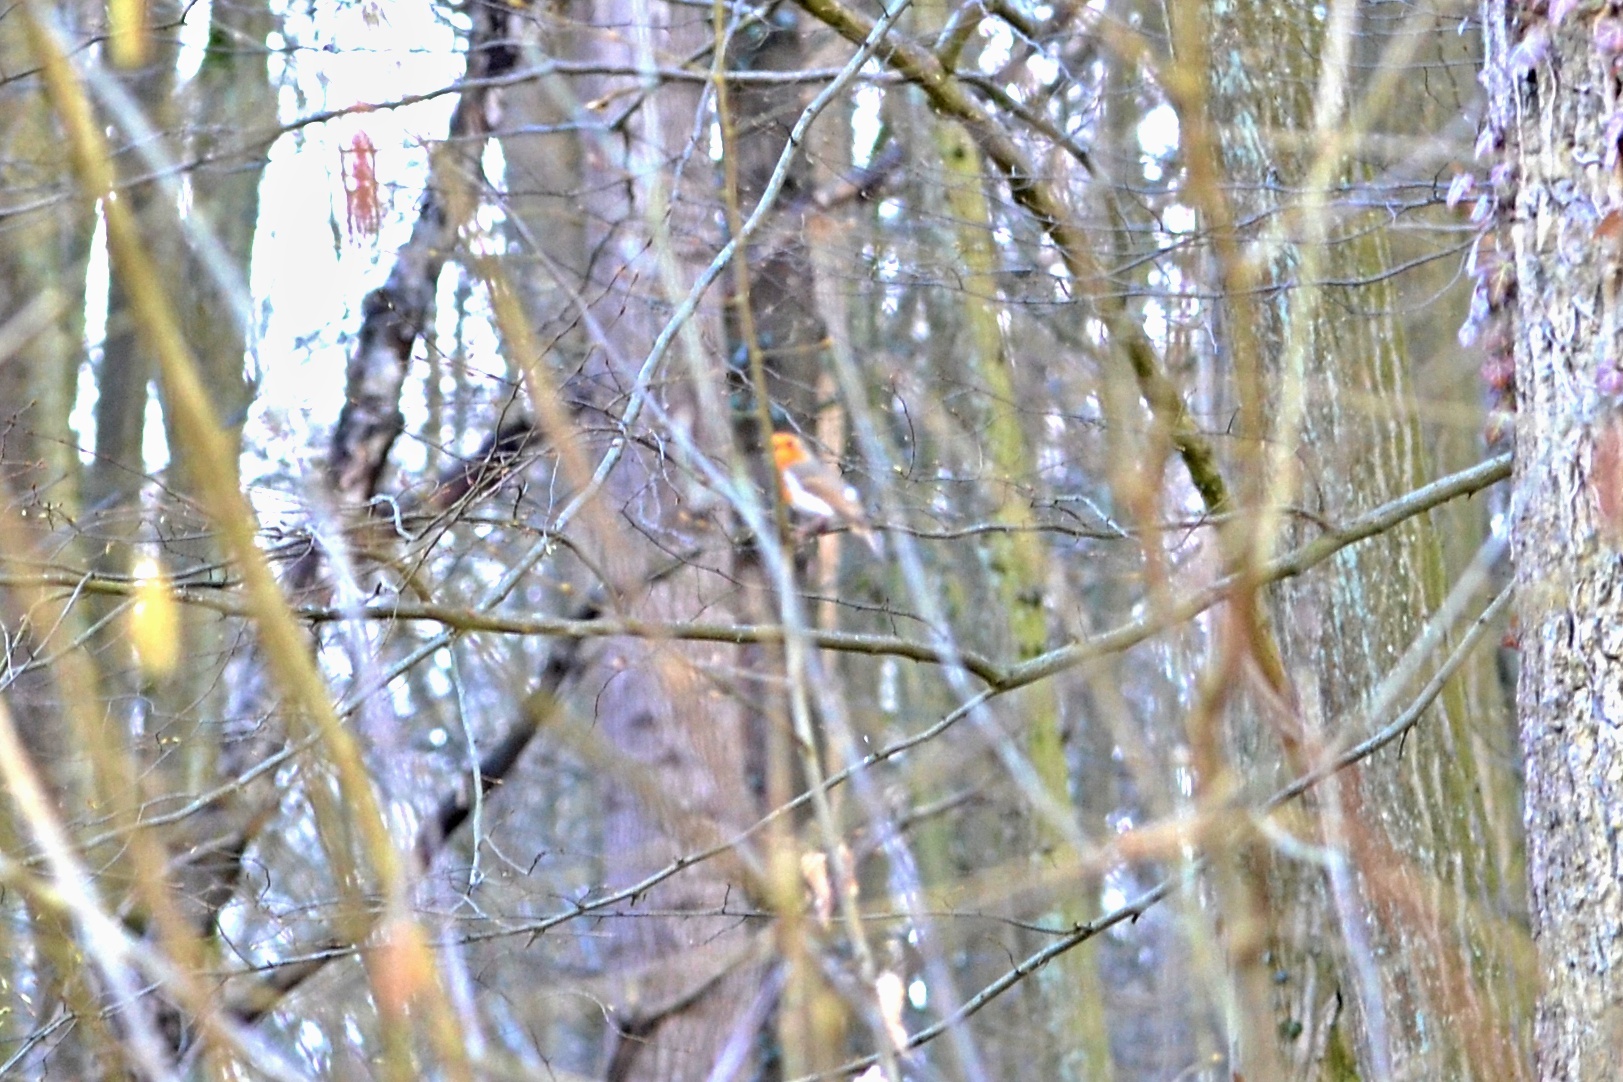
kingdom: Animalia
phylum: Chordata
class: Aves
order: Passeriformes
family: Muscicapidae
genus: Erithacus
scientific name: Erithacus rubecula
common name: European robin
